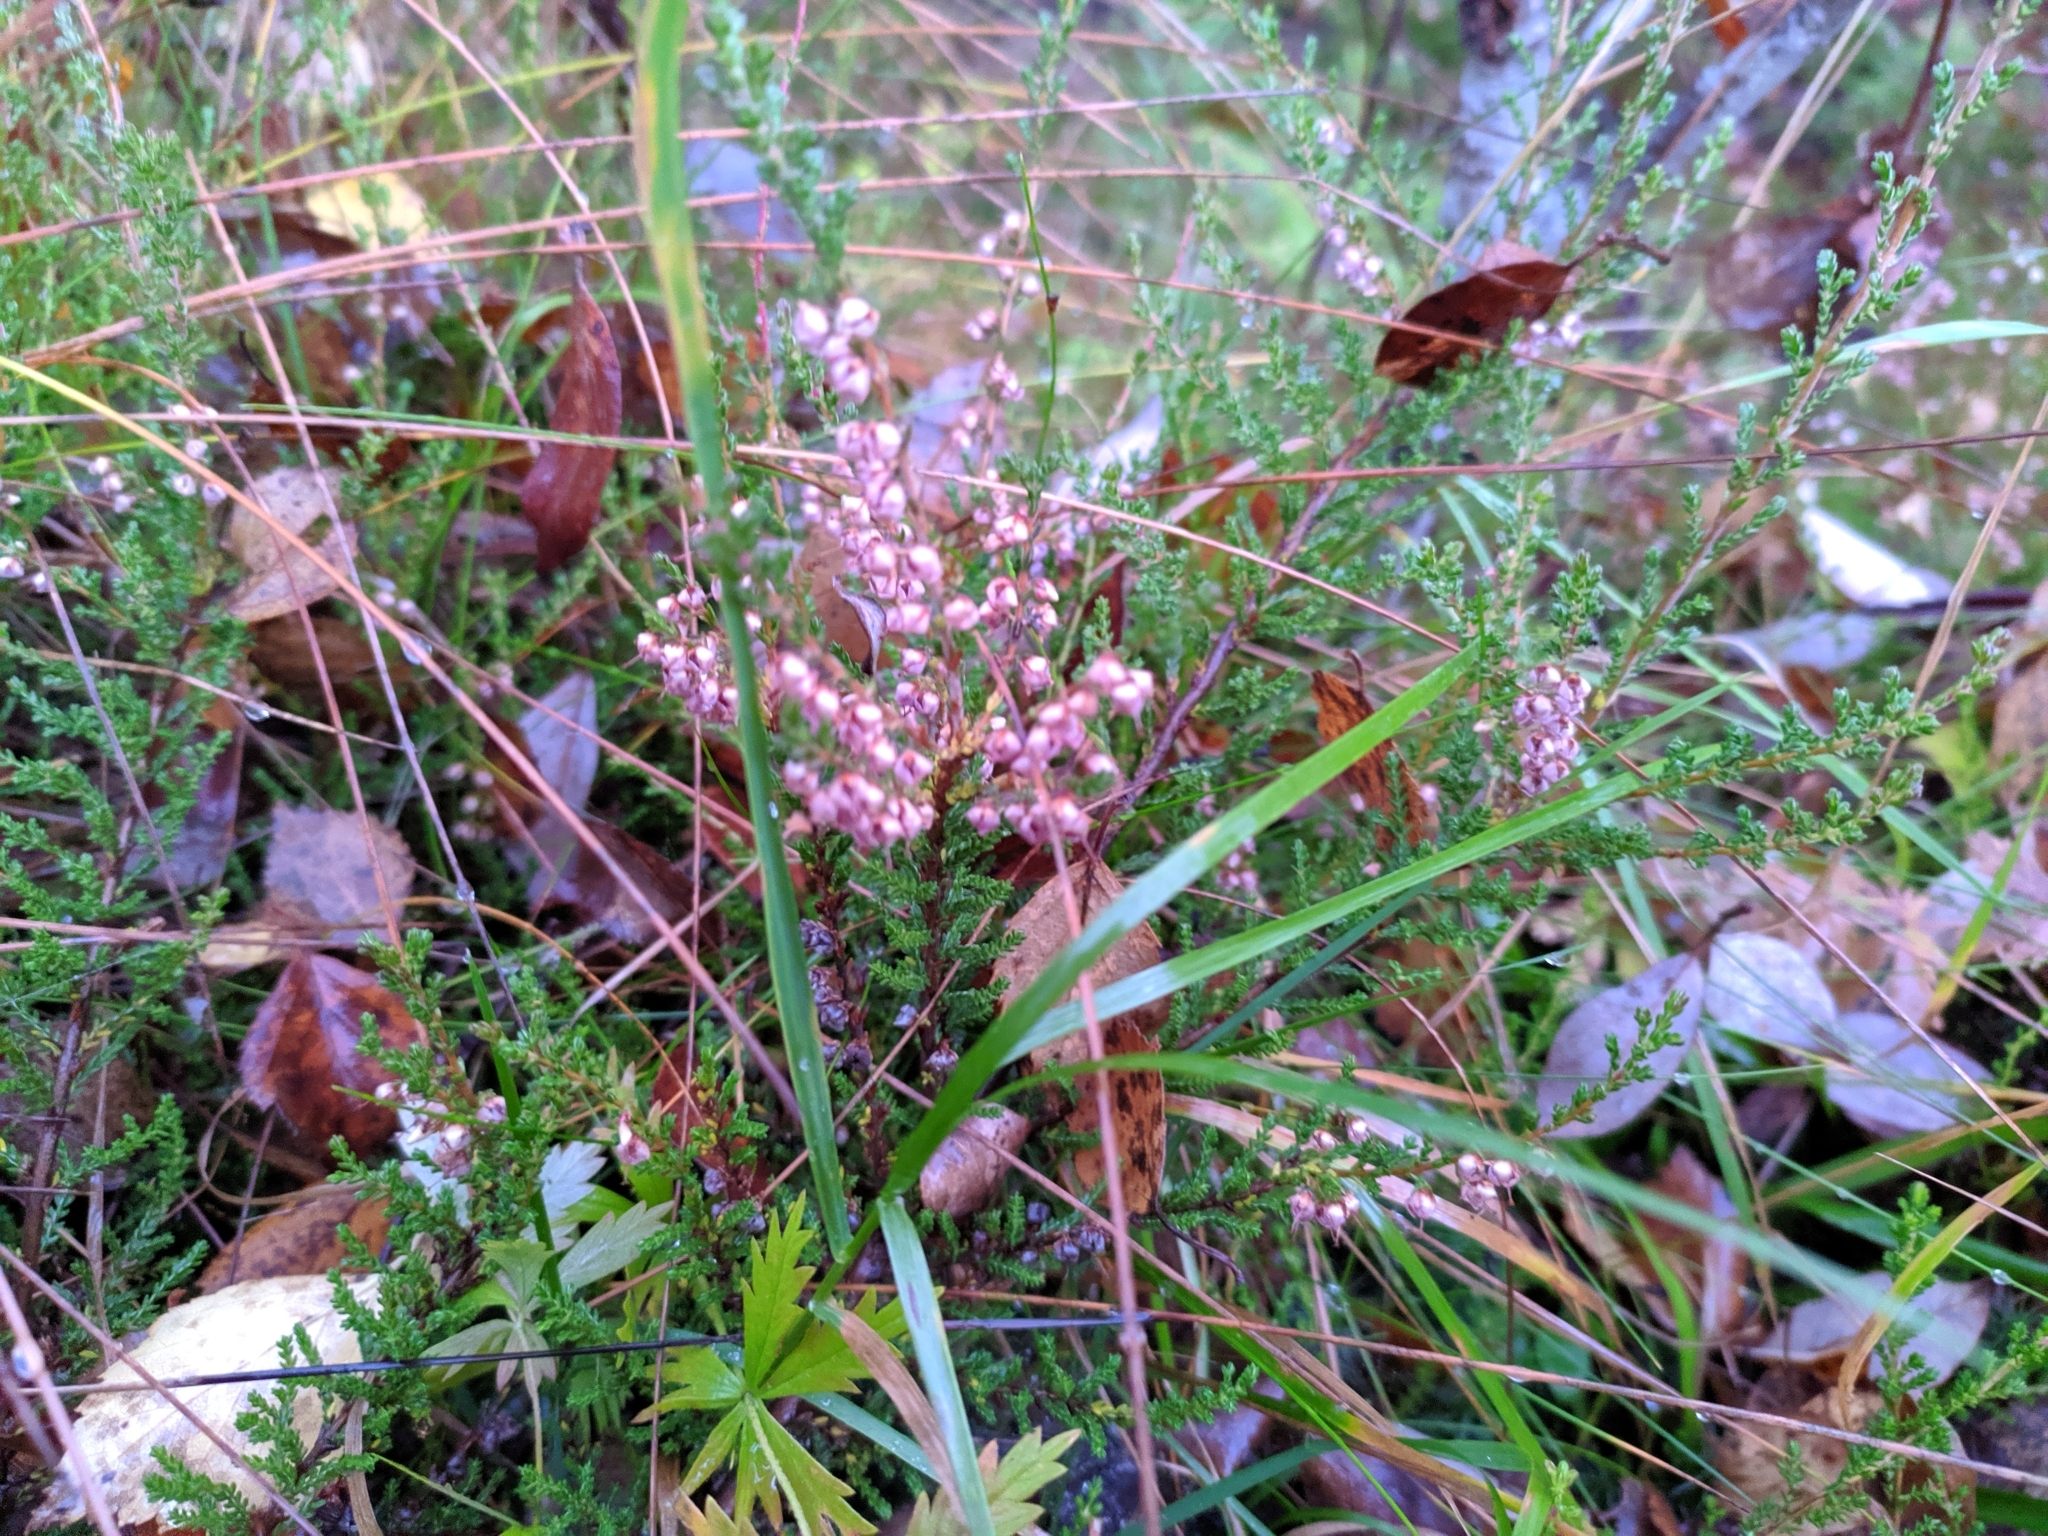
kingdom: Plantae
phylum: Tracheophyta
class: Magnoliopsida
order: Ericales
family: Ericaceae
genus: Calluna
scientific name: Calluna vulgaris
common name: Heather
